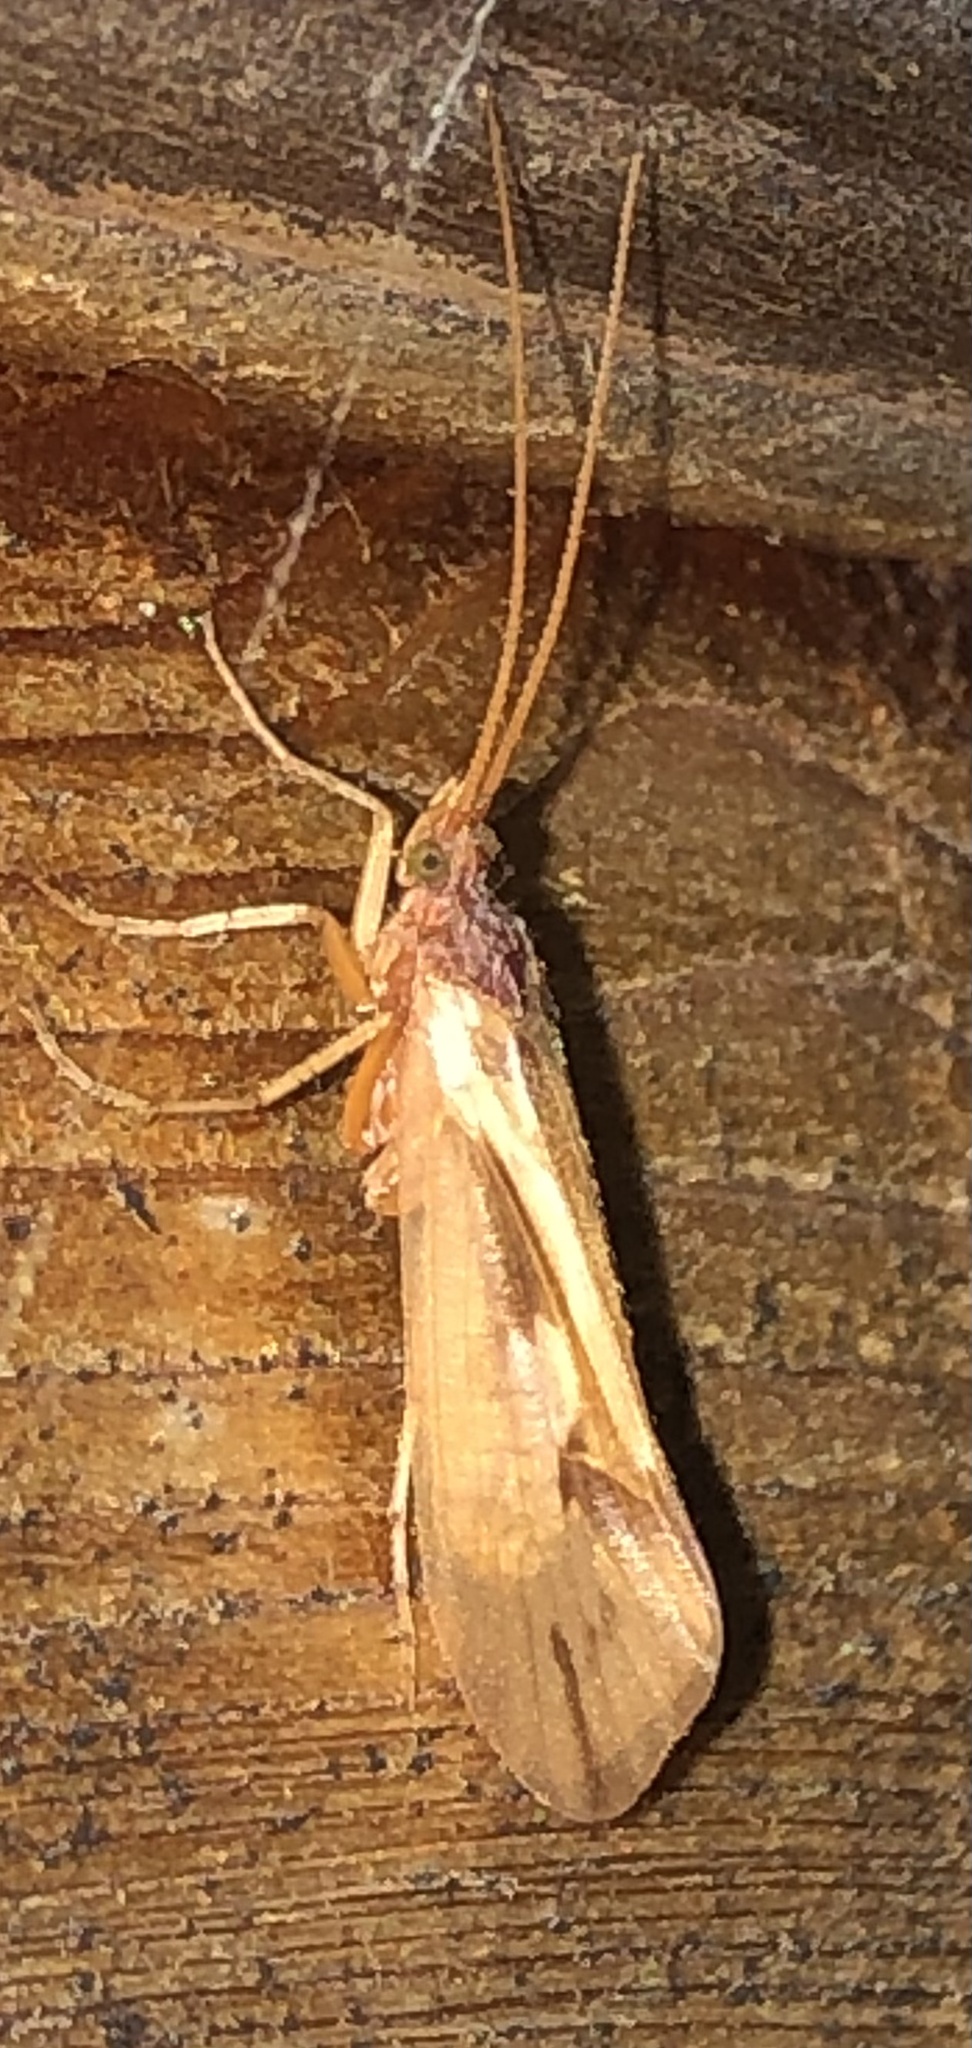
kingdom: Animalia
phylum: Arthropoda
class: Insecta
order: Trichoptera
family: Limnephilidae
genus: Platycentropus
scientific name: Platycentropus radiatus
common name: Chocolate-and-cream sedge
